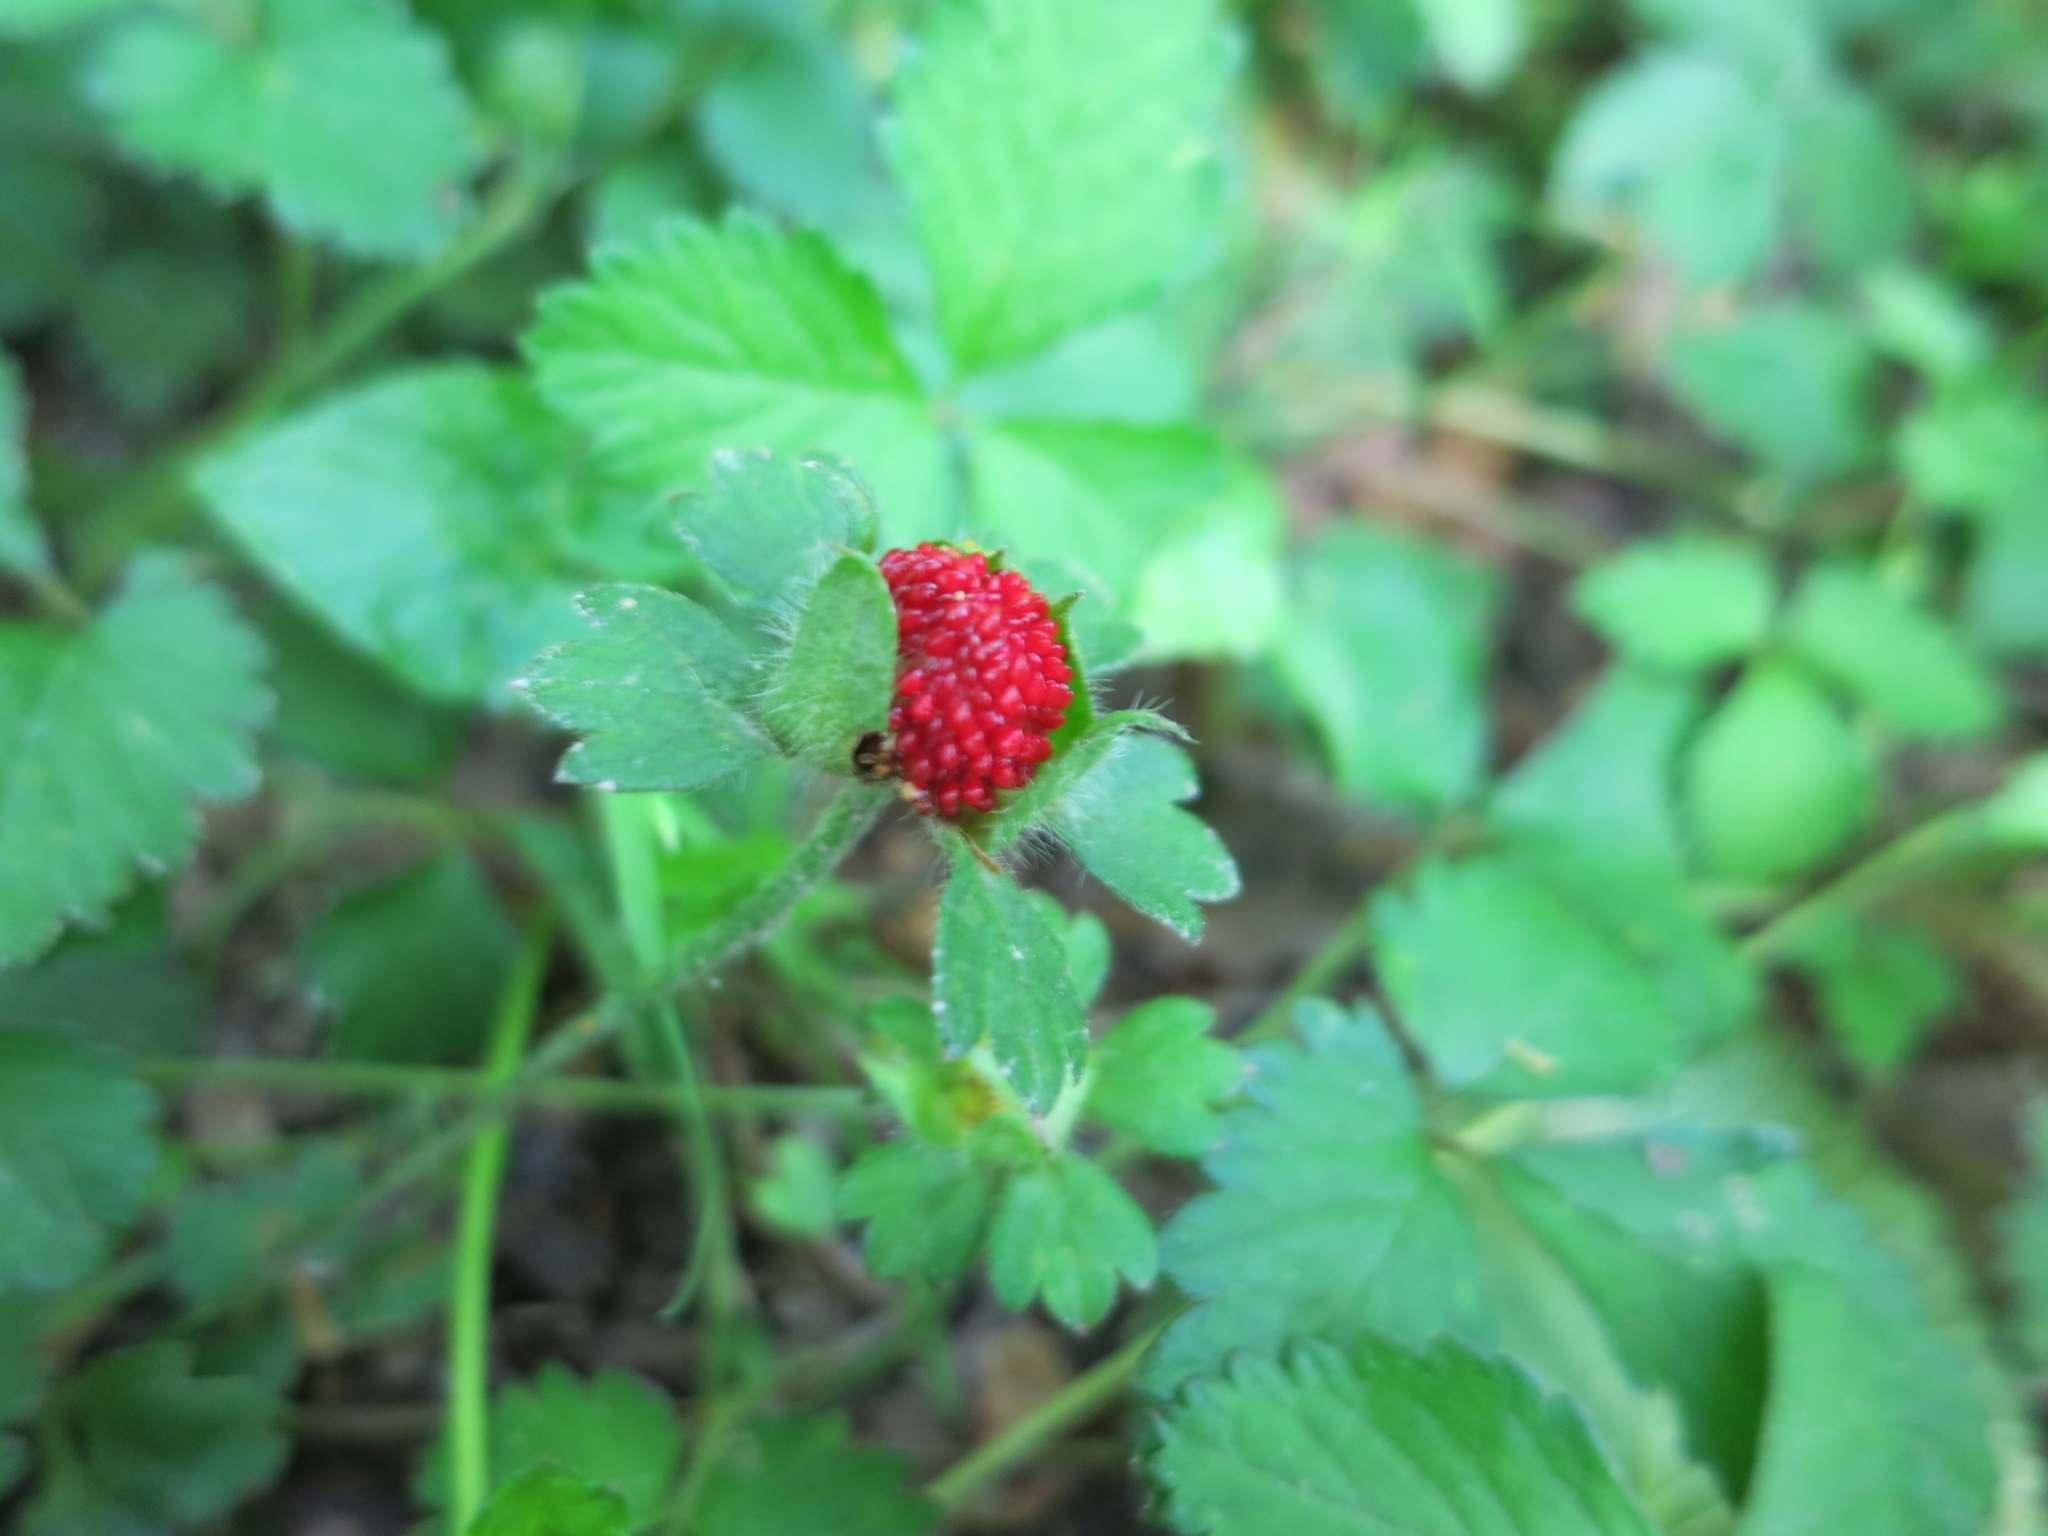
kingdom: Plantae
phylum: Tracheophyta
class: Magnoliopsida
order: Rosales
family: Rosaceae
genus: Potentilla
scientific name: Potentilla indica
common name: Yellow-flowered strawberry
